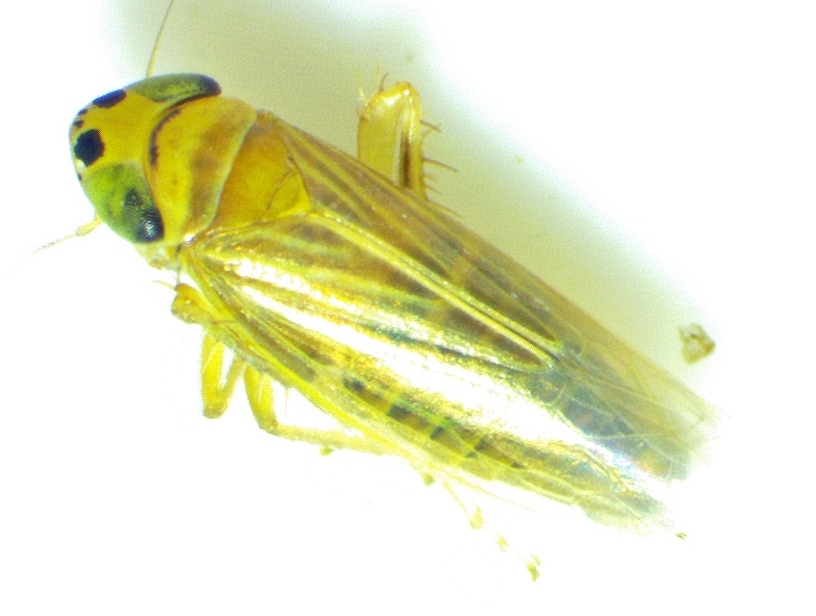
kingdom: Animalia
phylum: Arthropoda
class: Insecta
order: Hemiptera
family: Cicadellidae
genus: Graminella
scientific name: Graminella villicus
